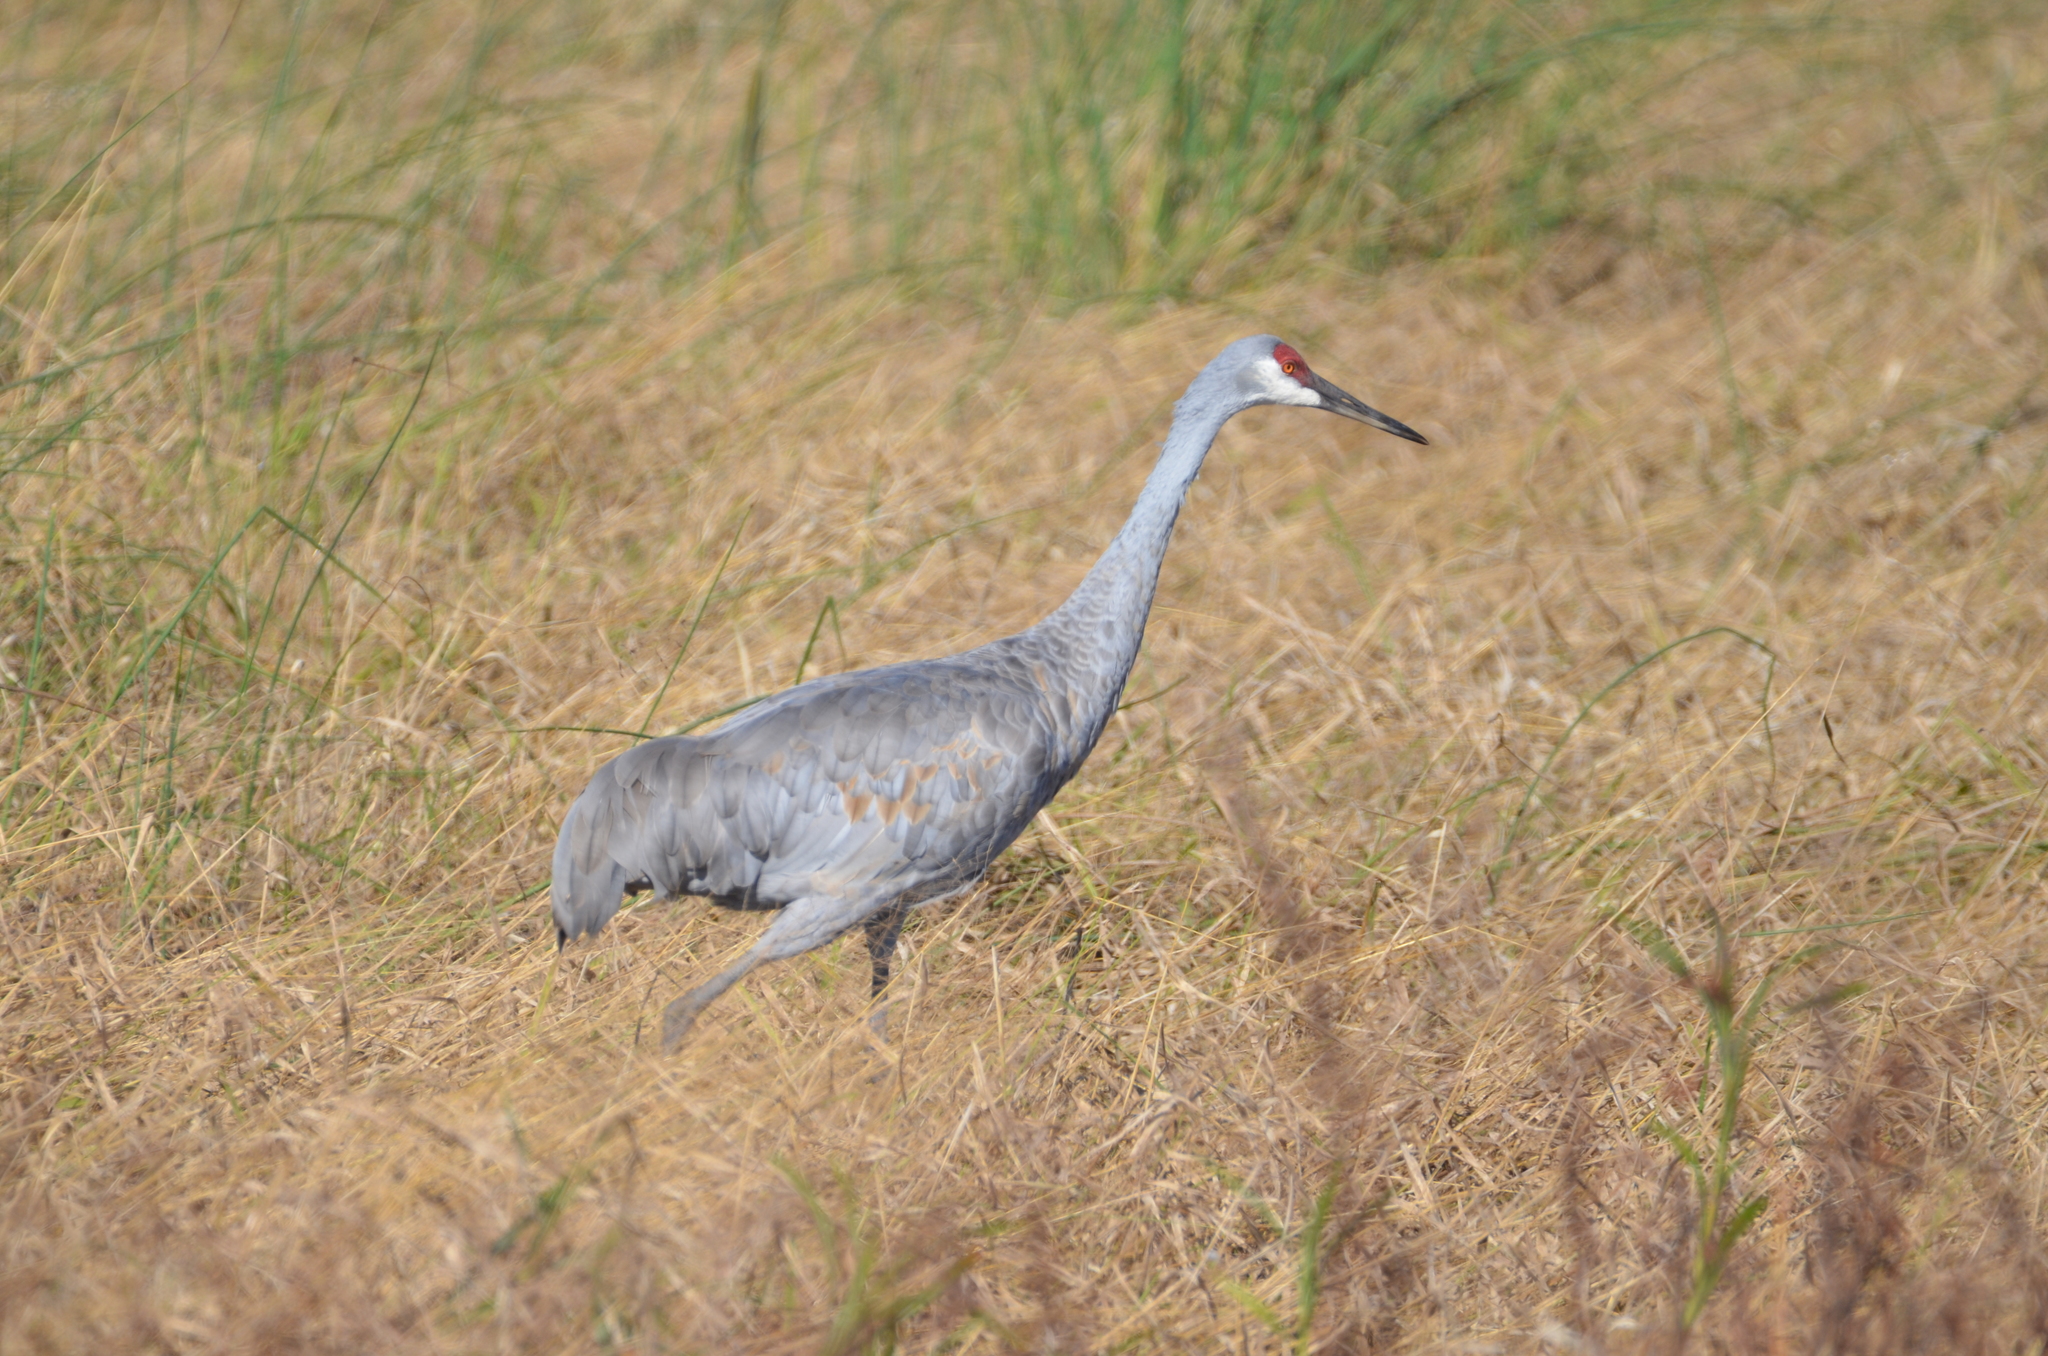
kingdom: Animalia
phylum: Chordata
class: Aves
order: Gruiformes
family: Gruidae
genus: Grus
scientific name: Grus canadensis
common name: Sandhill crane
